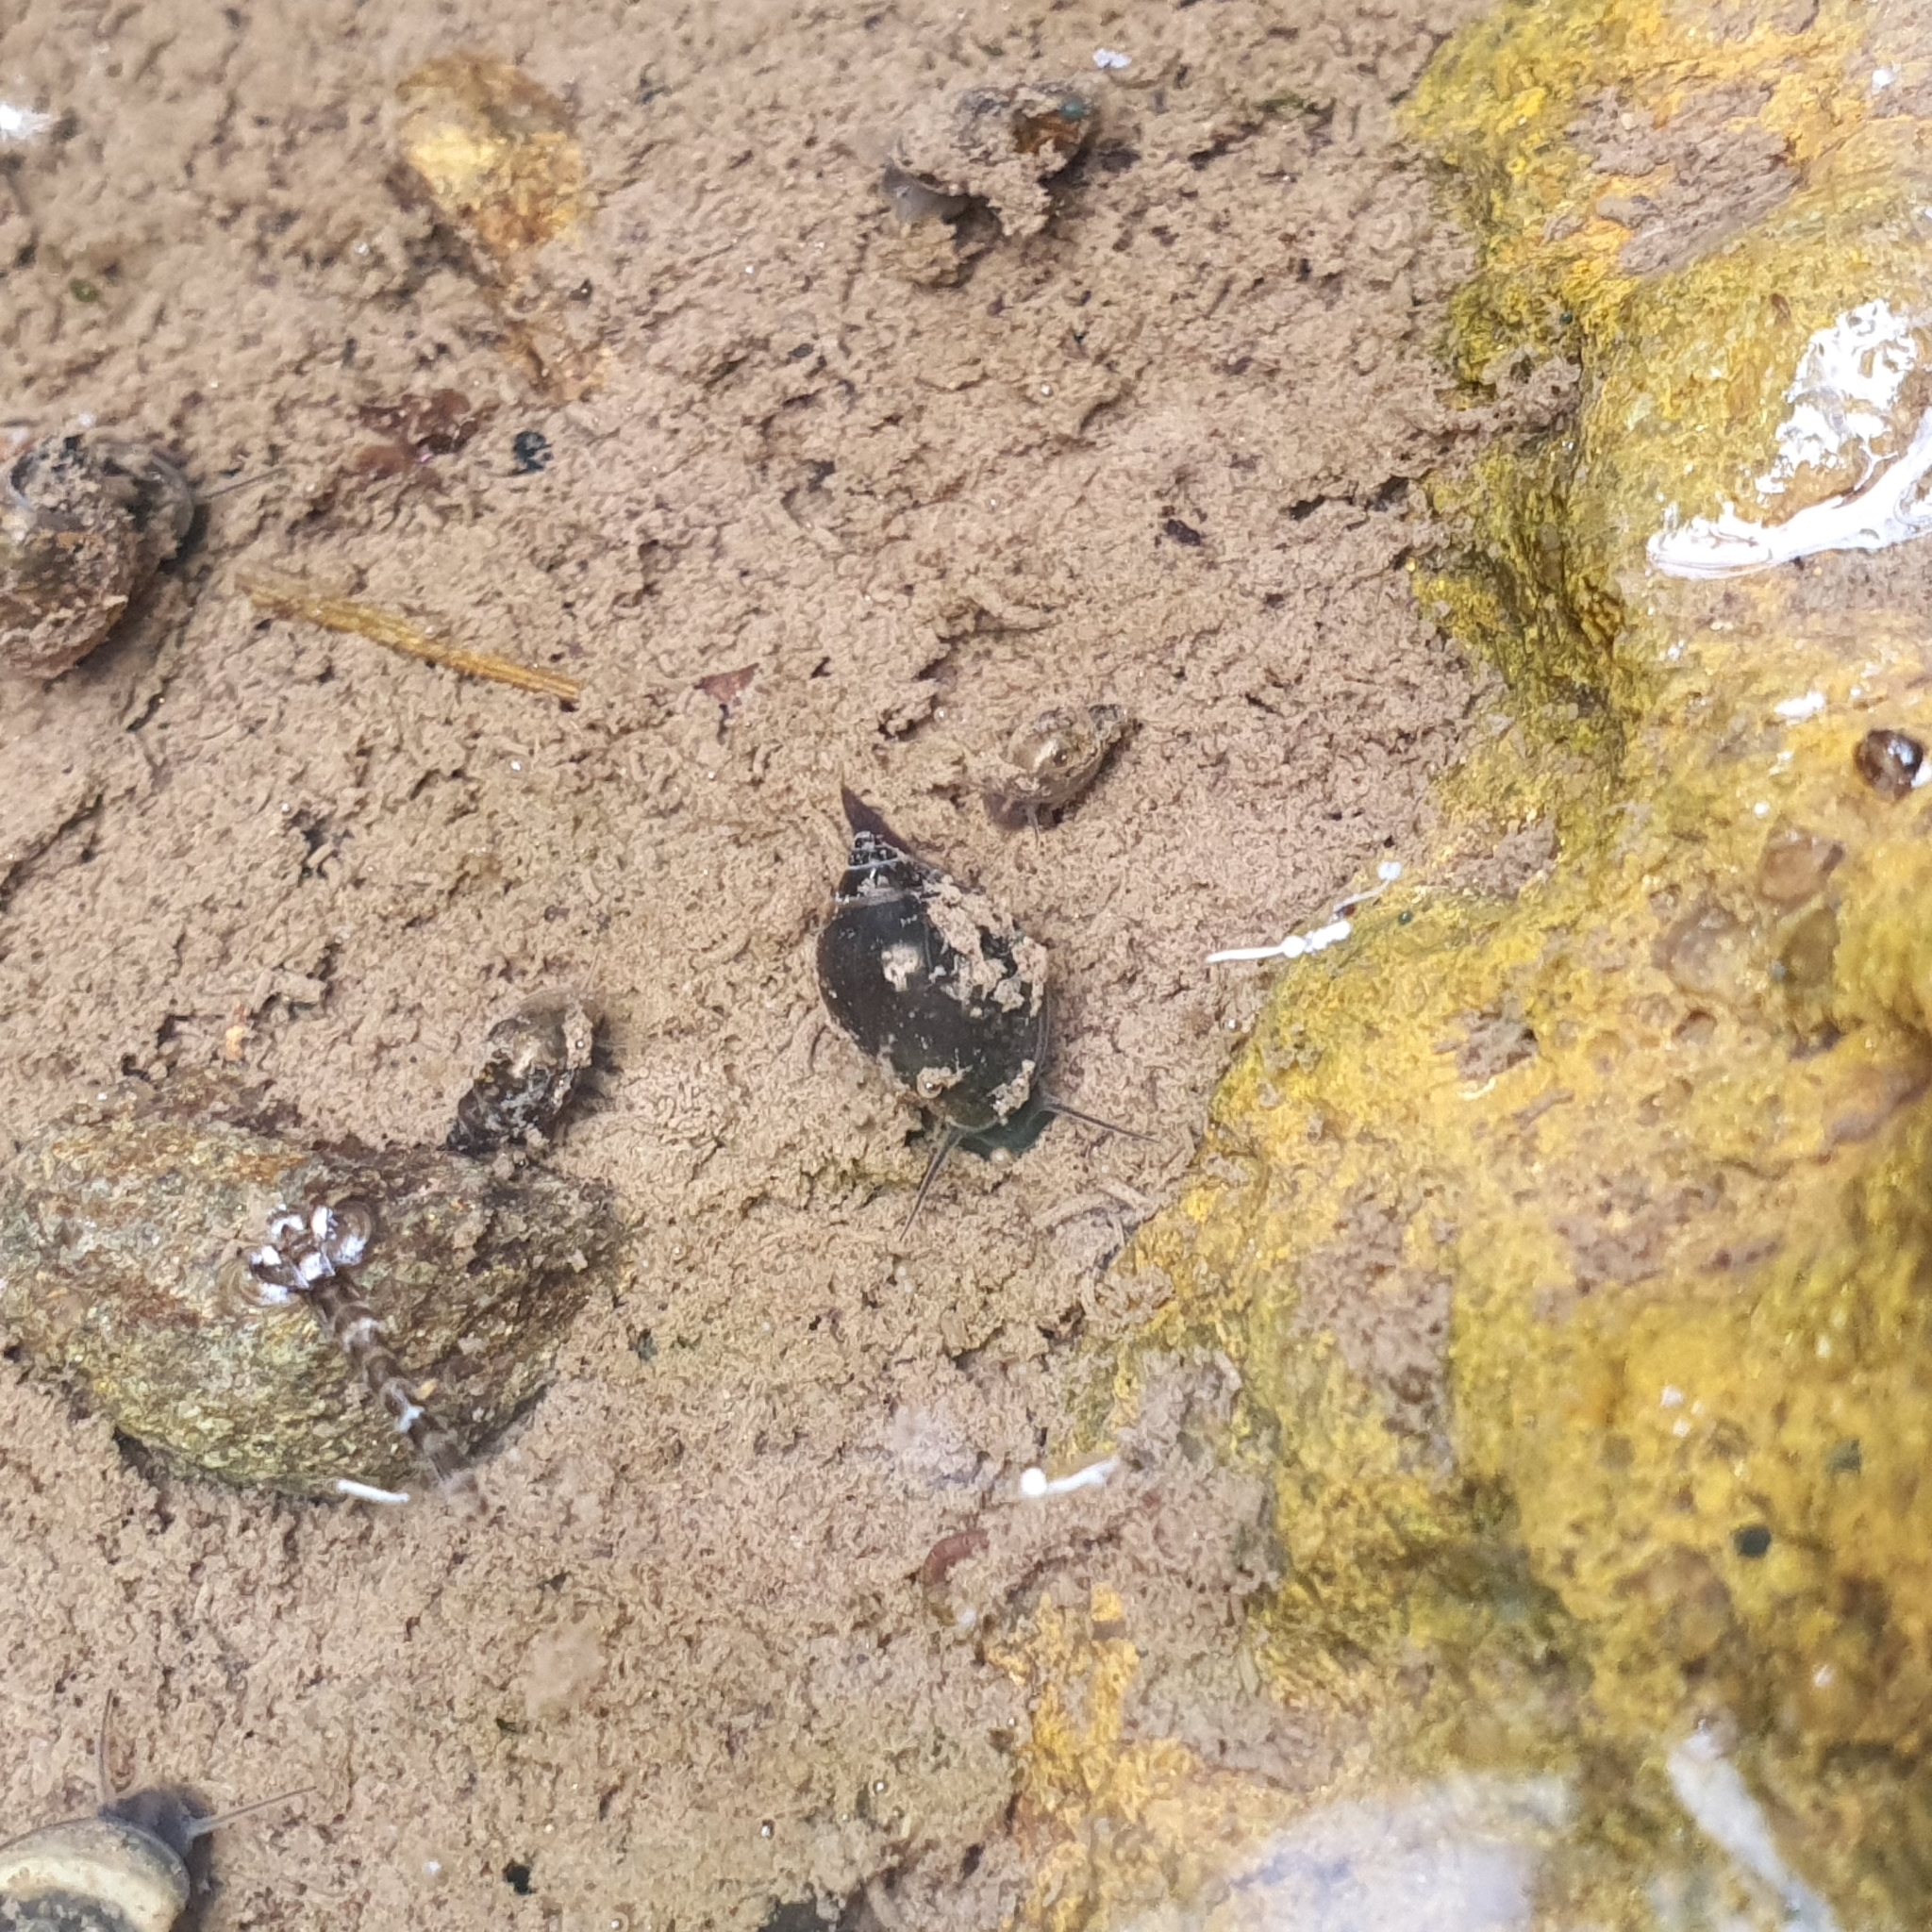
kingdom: Animalia
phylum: Mollusca
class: Gastropoda
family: Physidae
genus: Physella
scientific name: Physella acuta
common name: European physa
